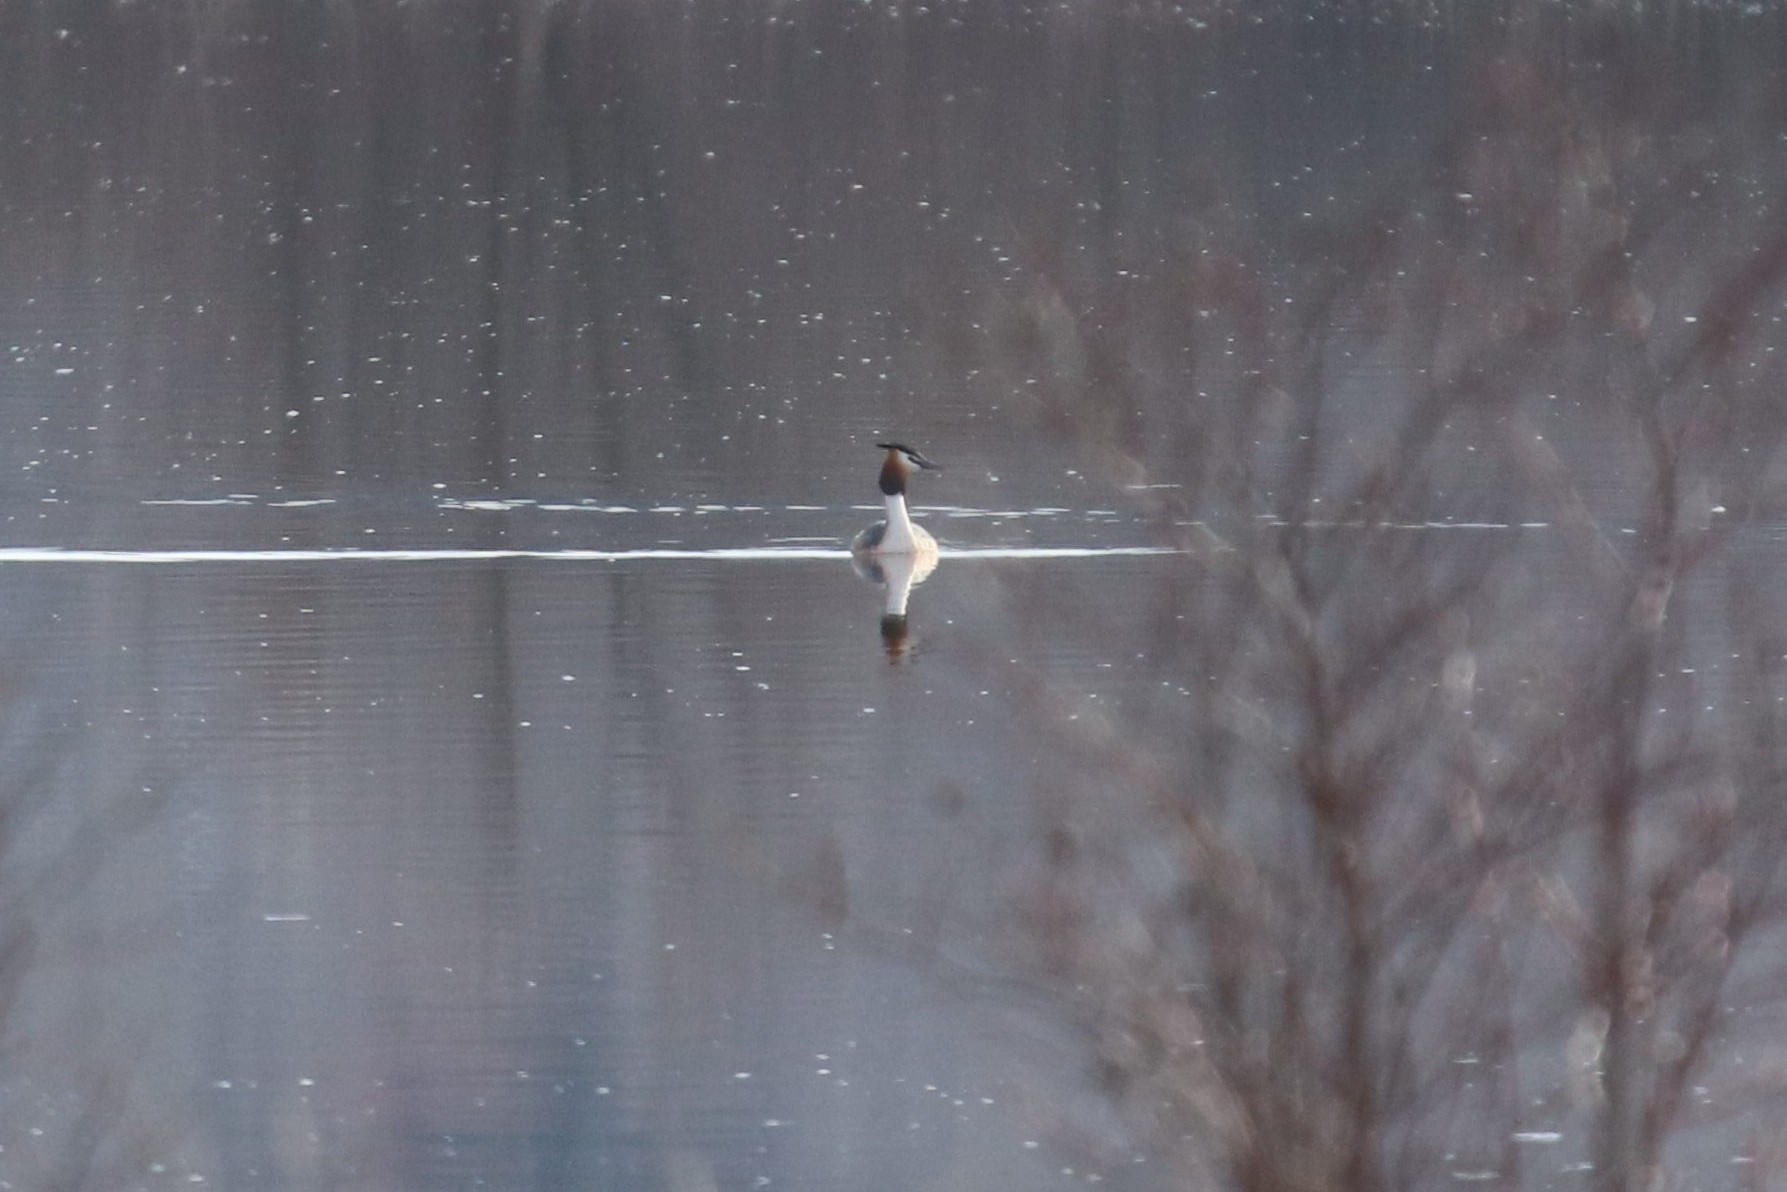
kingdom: Animalia
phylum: Chordata
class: Aves
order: Podicipediformes
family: Podicipedidae
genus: Podiceps
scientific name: Podiceps cristatus
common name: Great crested grebe
